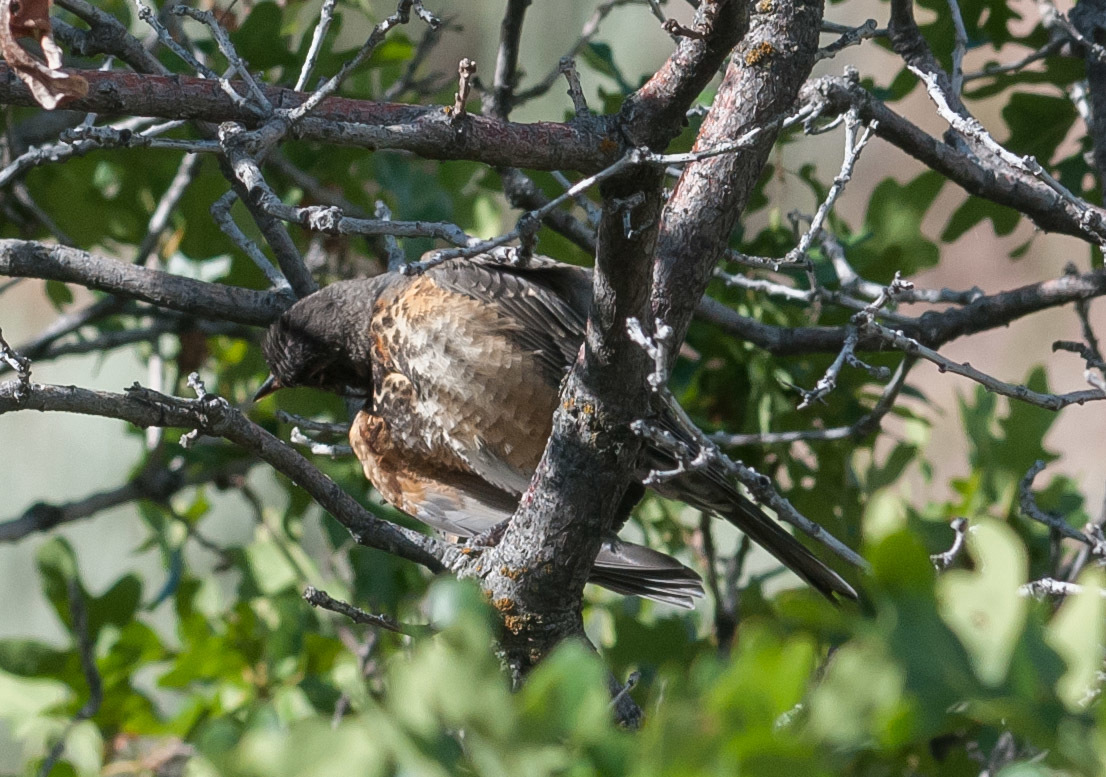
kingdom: Animalia
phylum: Chordata
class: Aves
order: Passeriformes
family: Turdidae
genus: Turdus
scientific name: Turdus migratorius
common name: American robin
